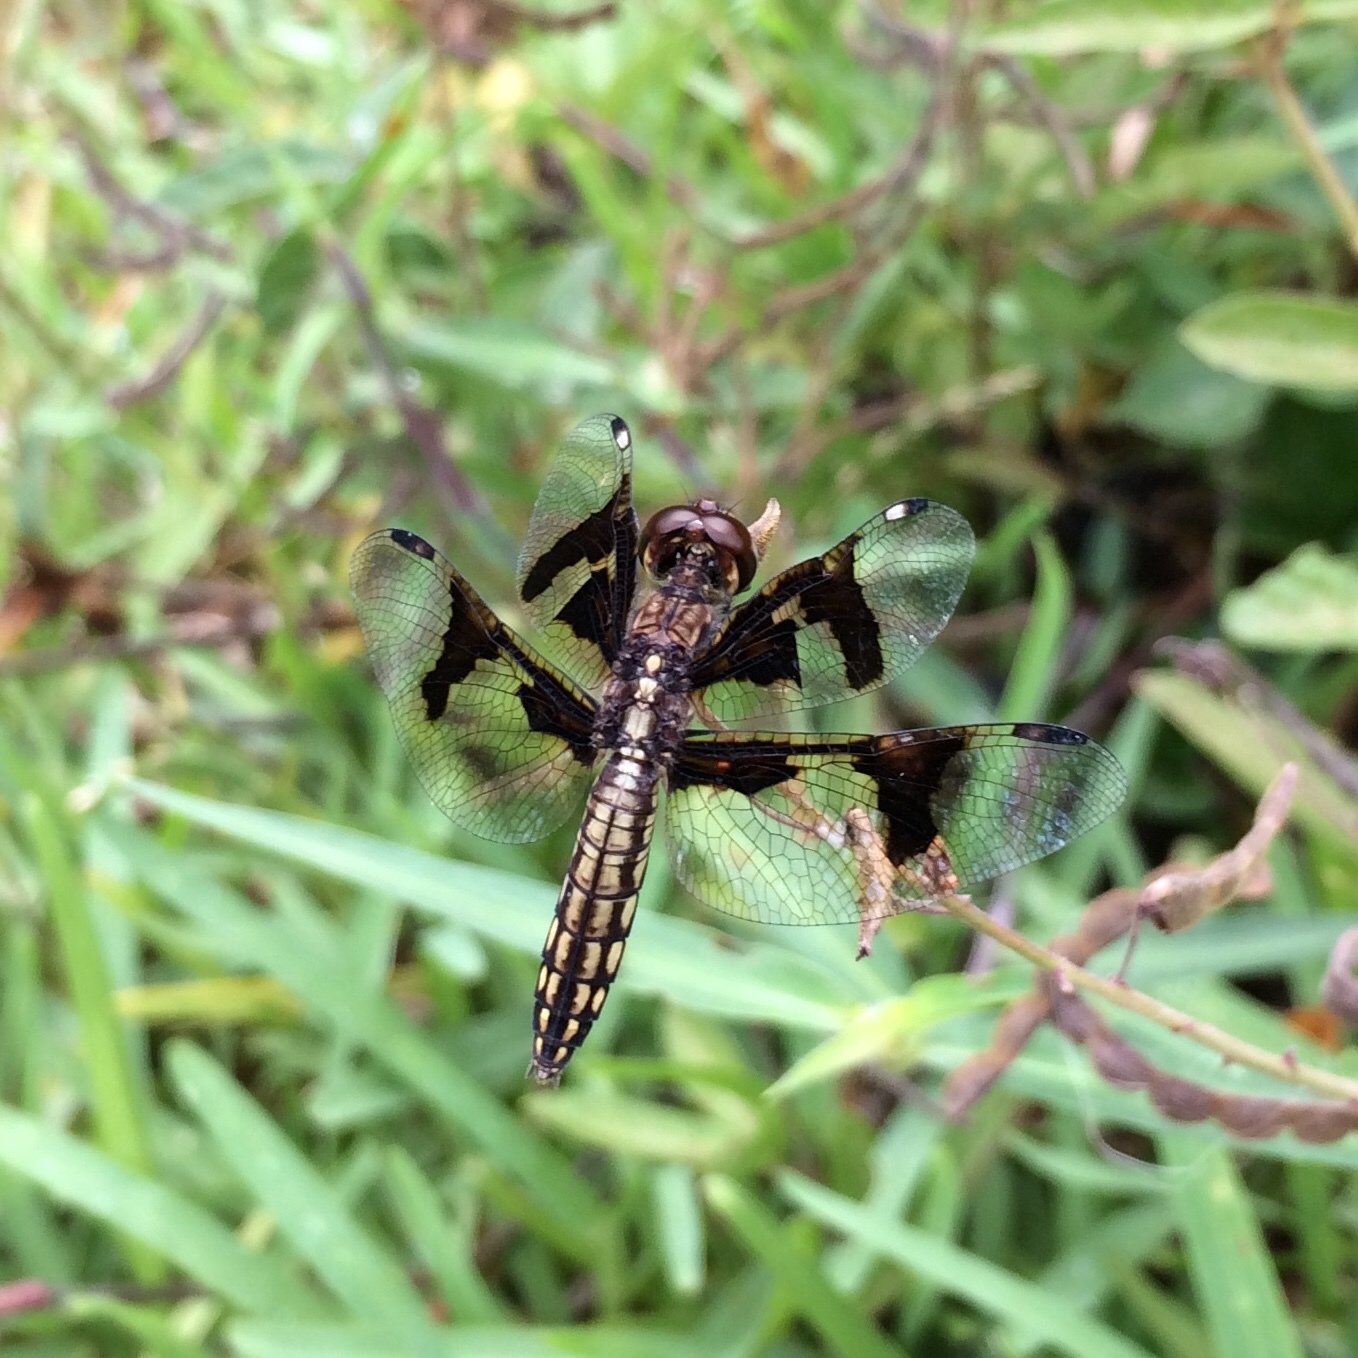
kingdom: Animalia
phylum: Arthropoda
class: Insecta
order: Odonata
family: Libellulidae
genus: Palpopleura
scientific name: Palpopleura portia
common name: Portia widow
